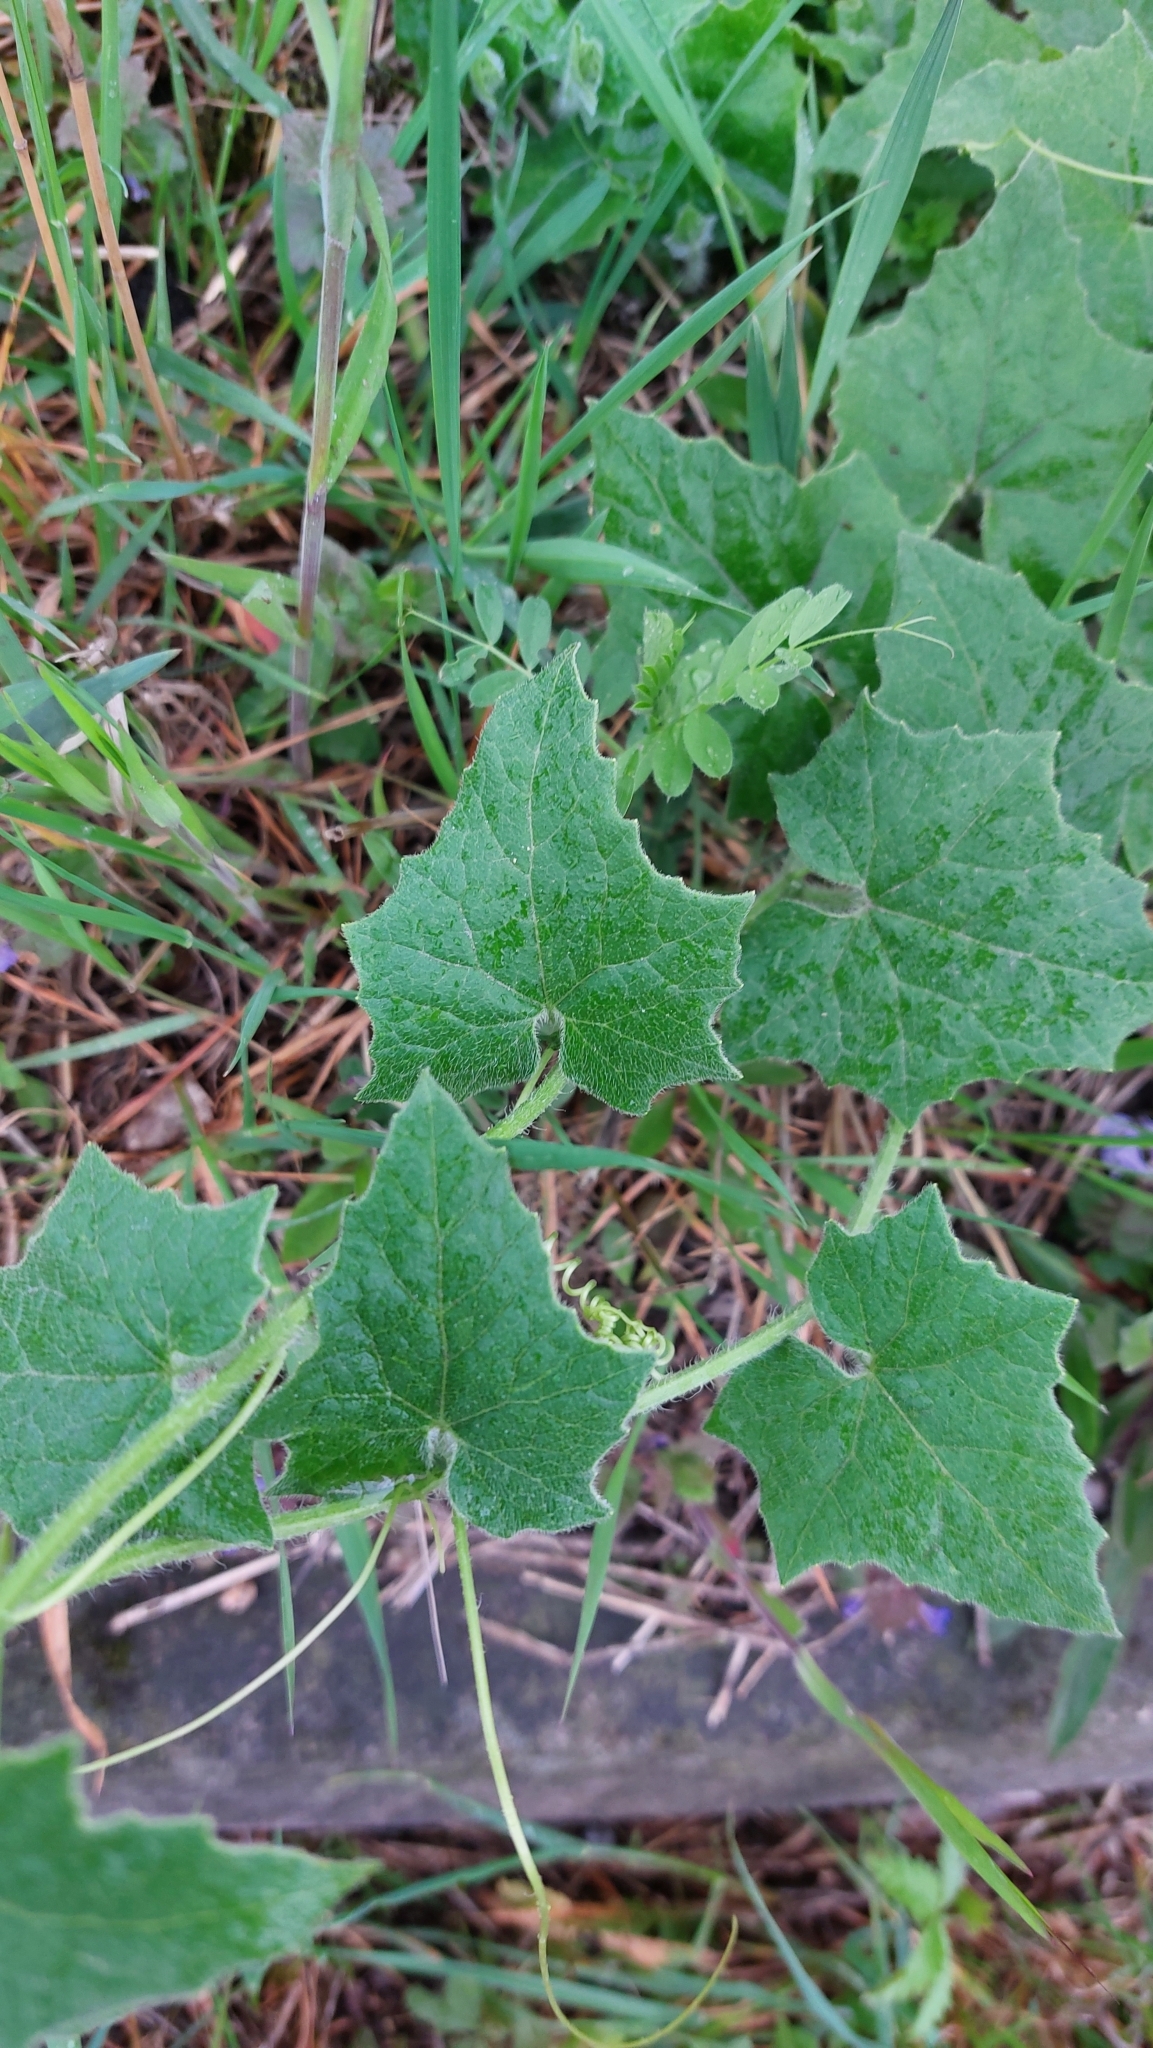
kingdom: Plantae
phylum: Tracheophyta
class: Magnoliopsida
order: Cucurbitales
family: Cucurbitaceae
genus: Bryonia
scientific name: Bryonia dioica
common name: White bryony
